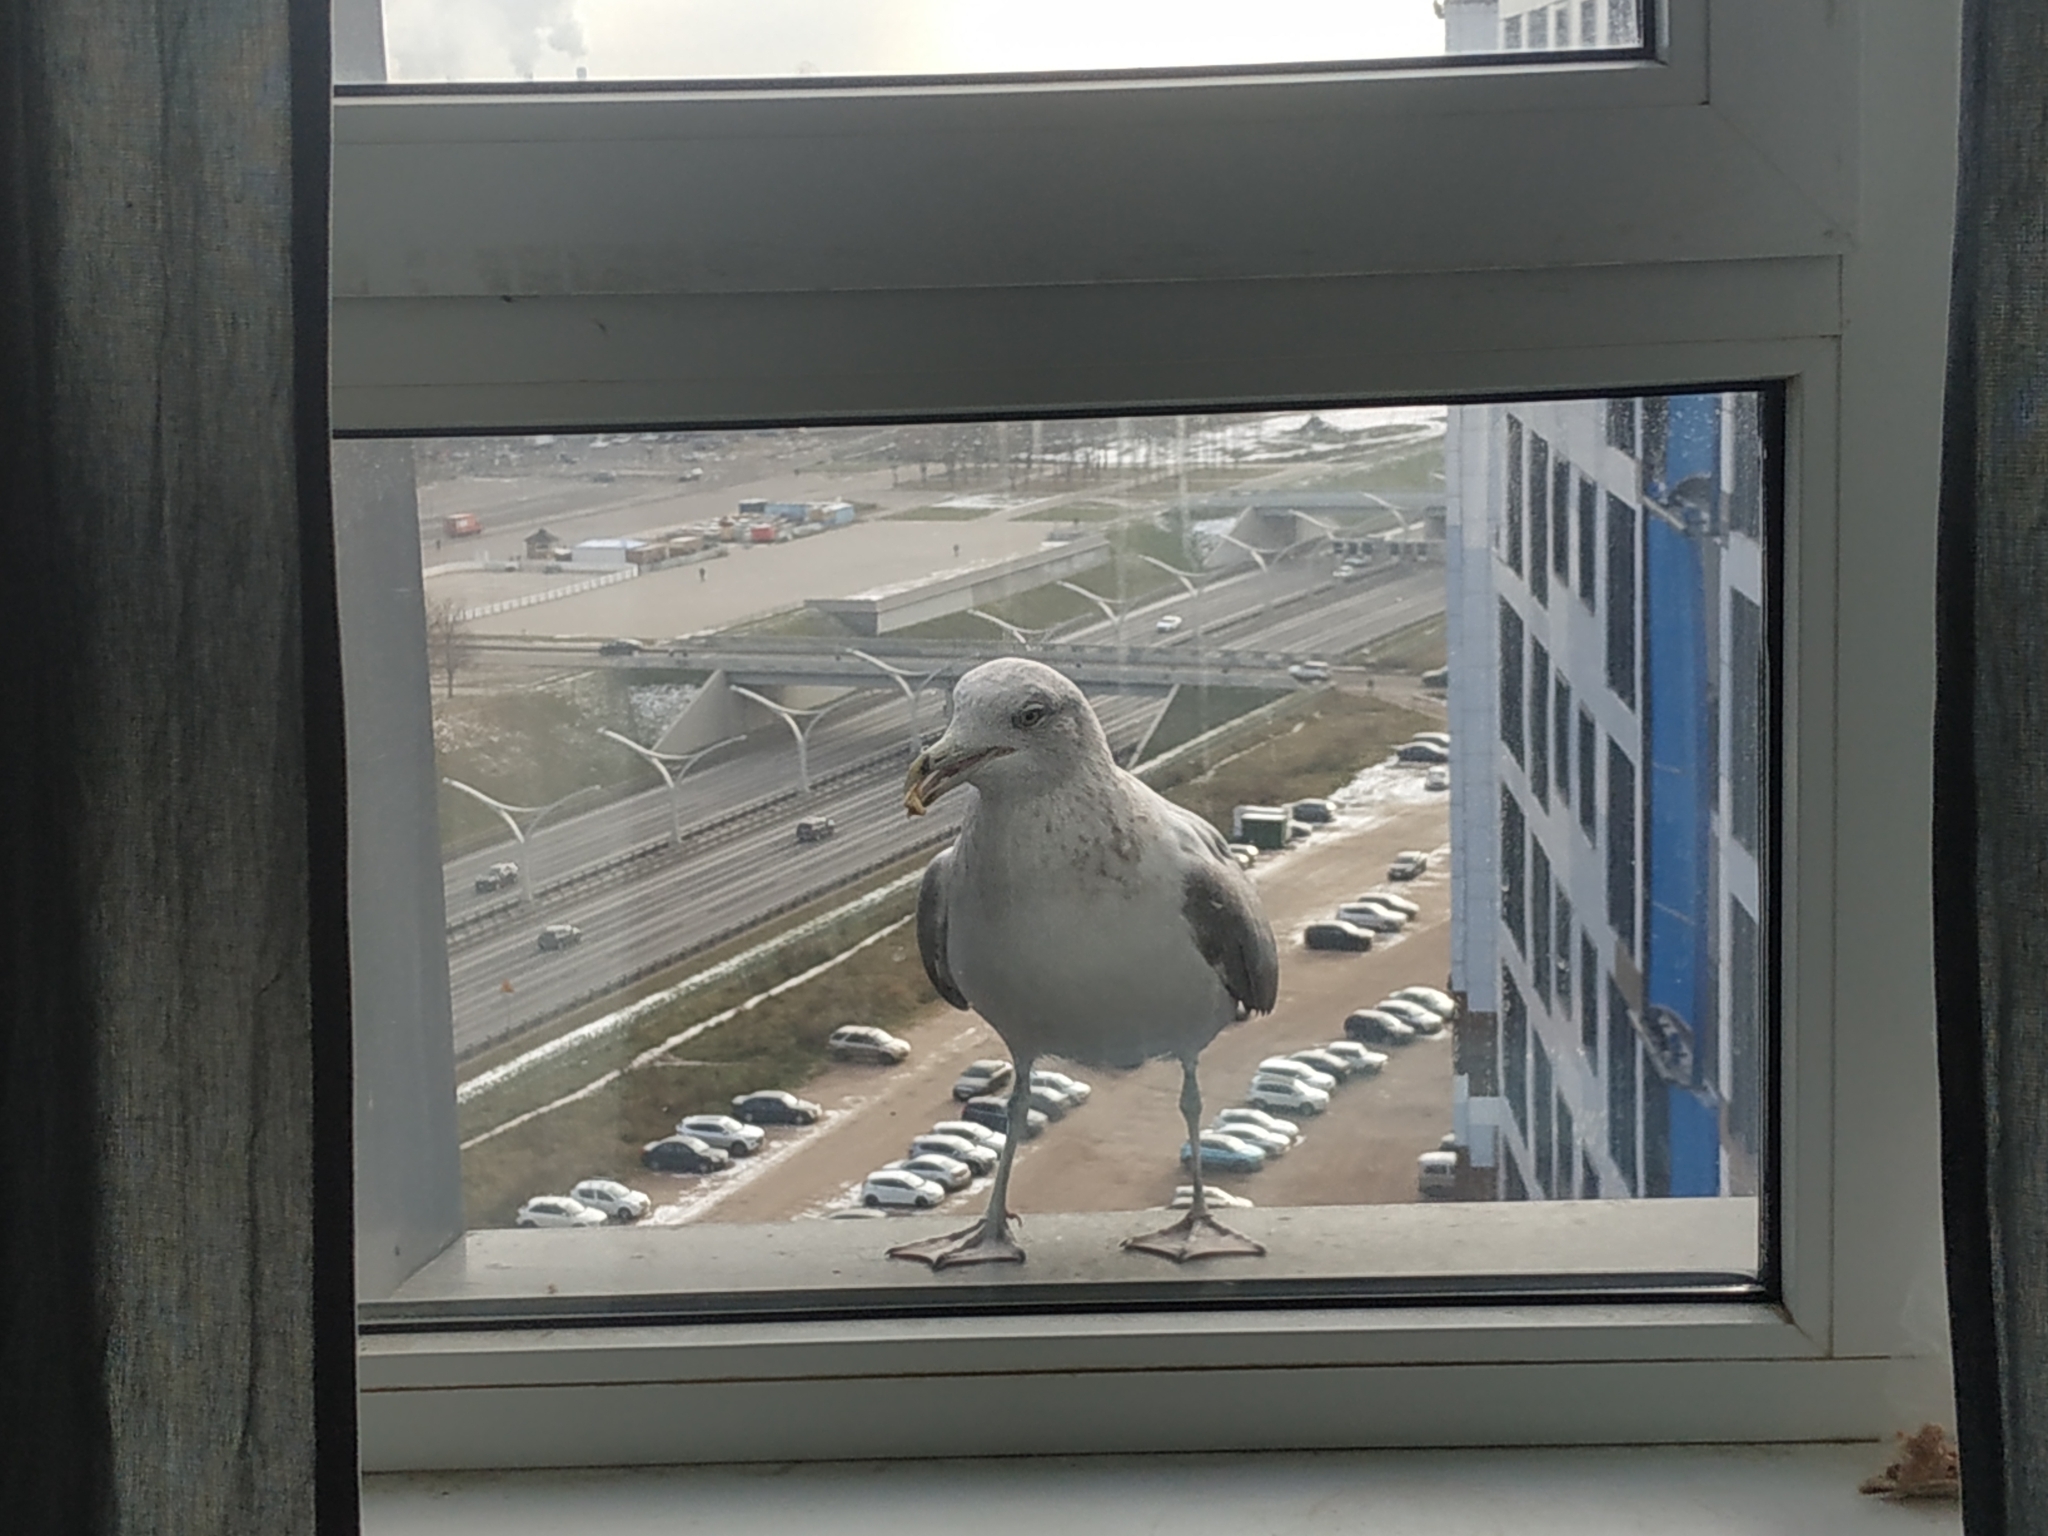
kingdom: Animalia
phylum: Chordata
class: Aves
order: Charadriiformes
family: Laridae
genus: Larus
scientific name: Larus argentatus
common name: Herring gull
